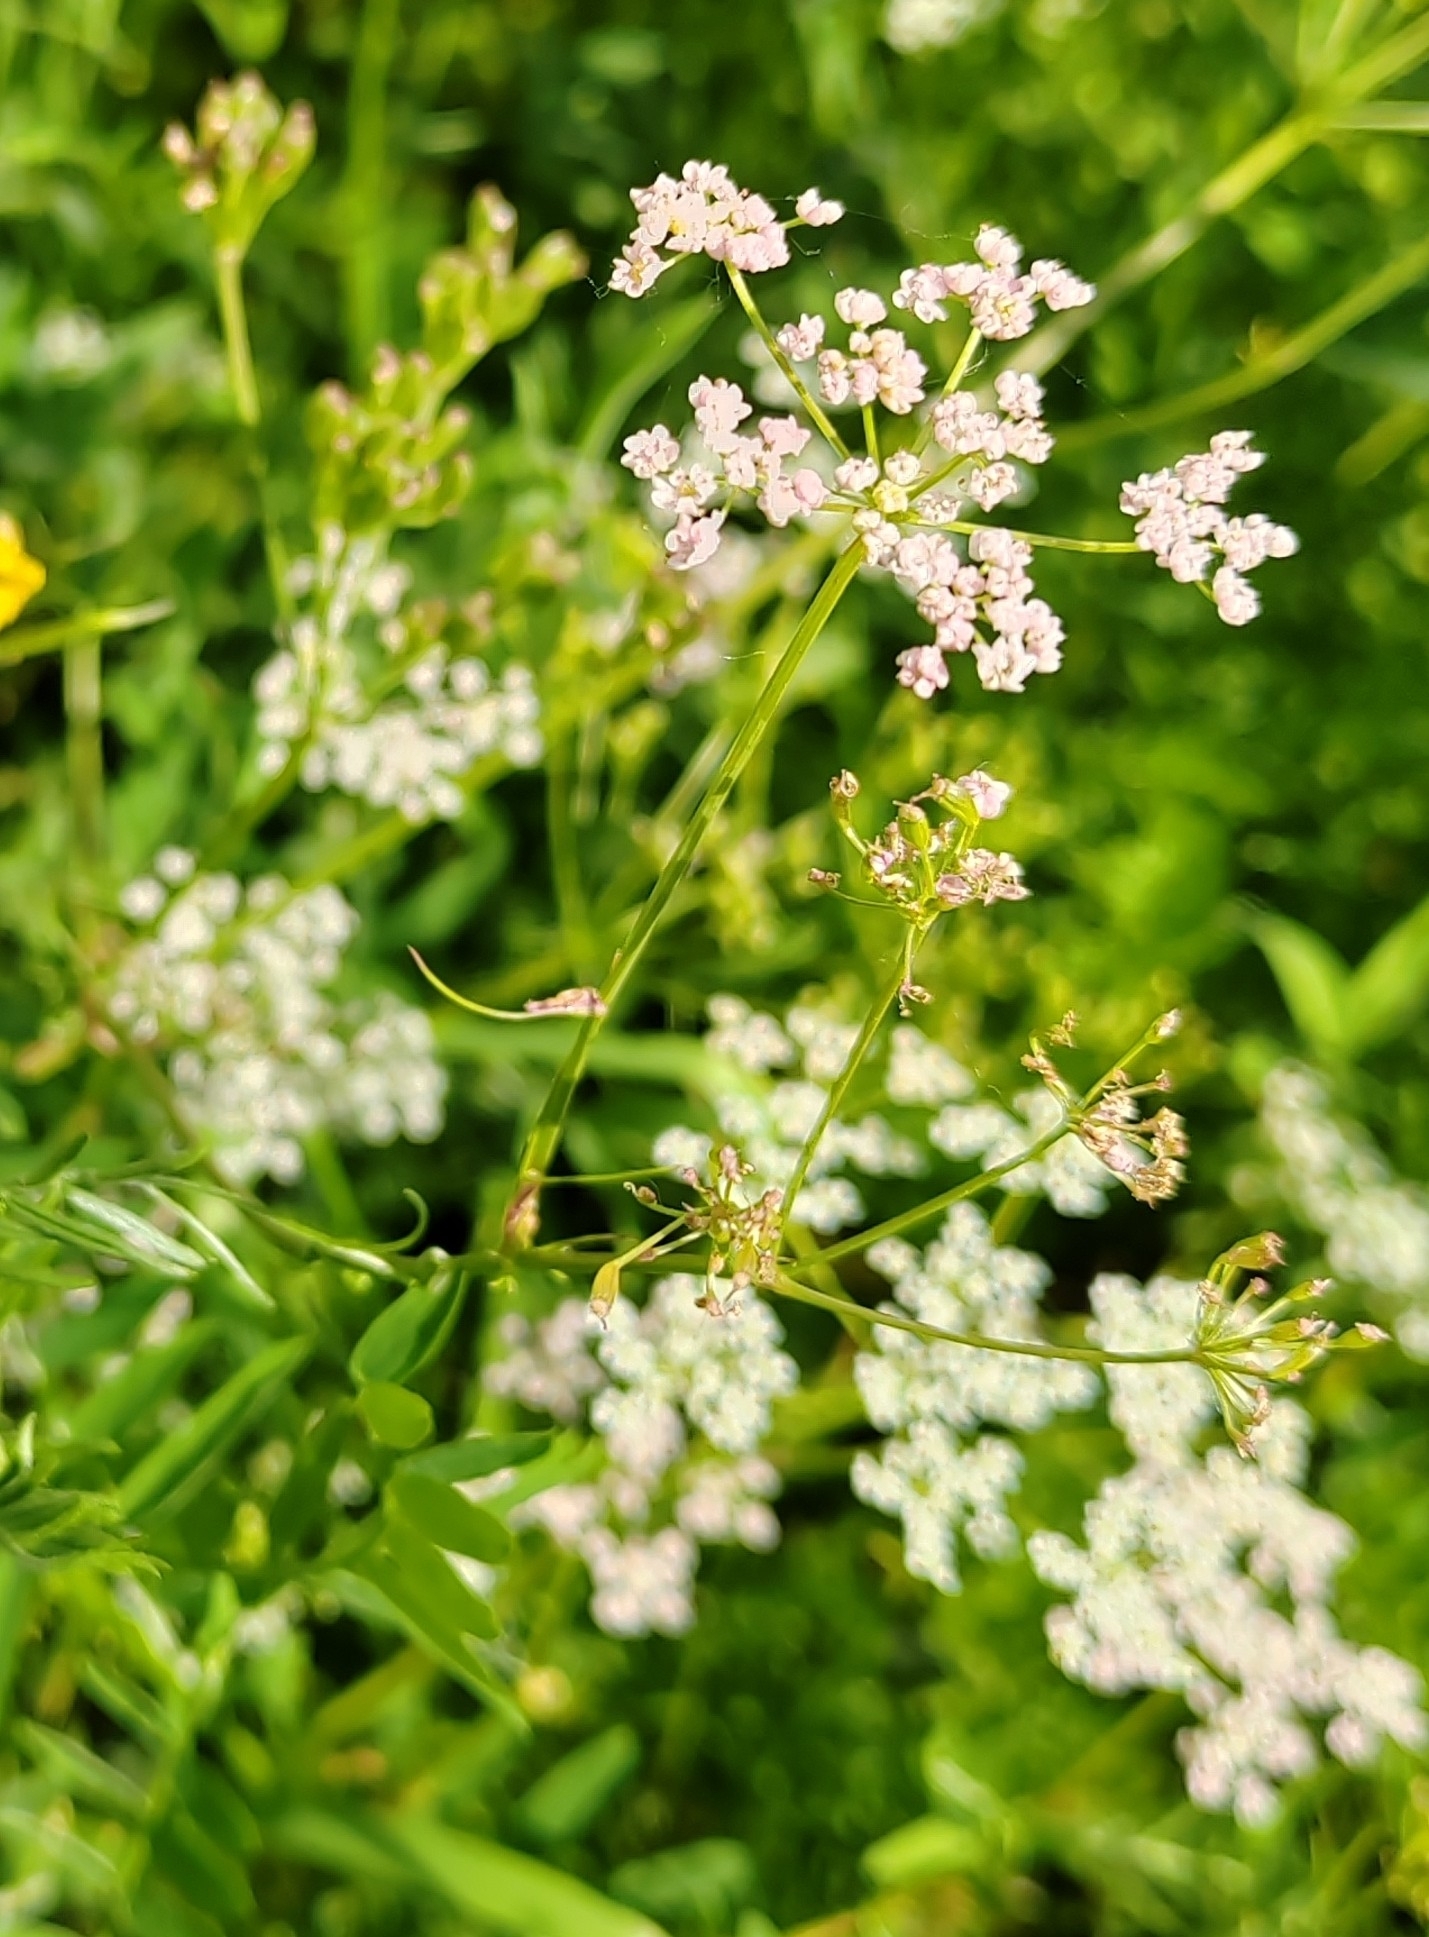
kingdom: Plantae
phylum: Tracheophyta
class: Magnoliopsida
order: Apiales
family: Apiaceae
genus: Carum
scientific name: Carum carvi
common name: Caraway
